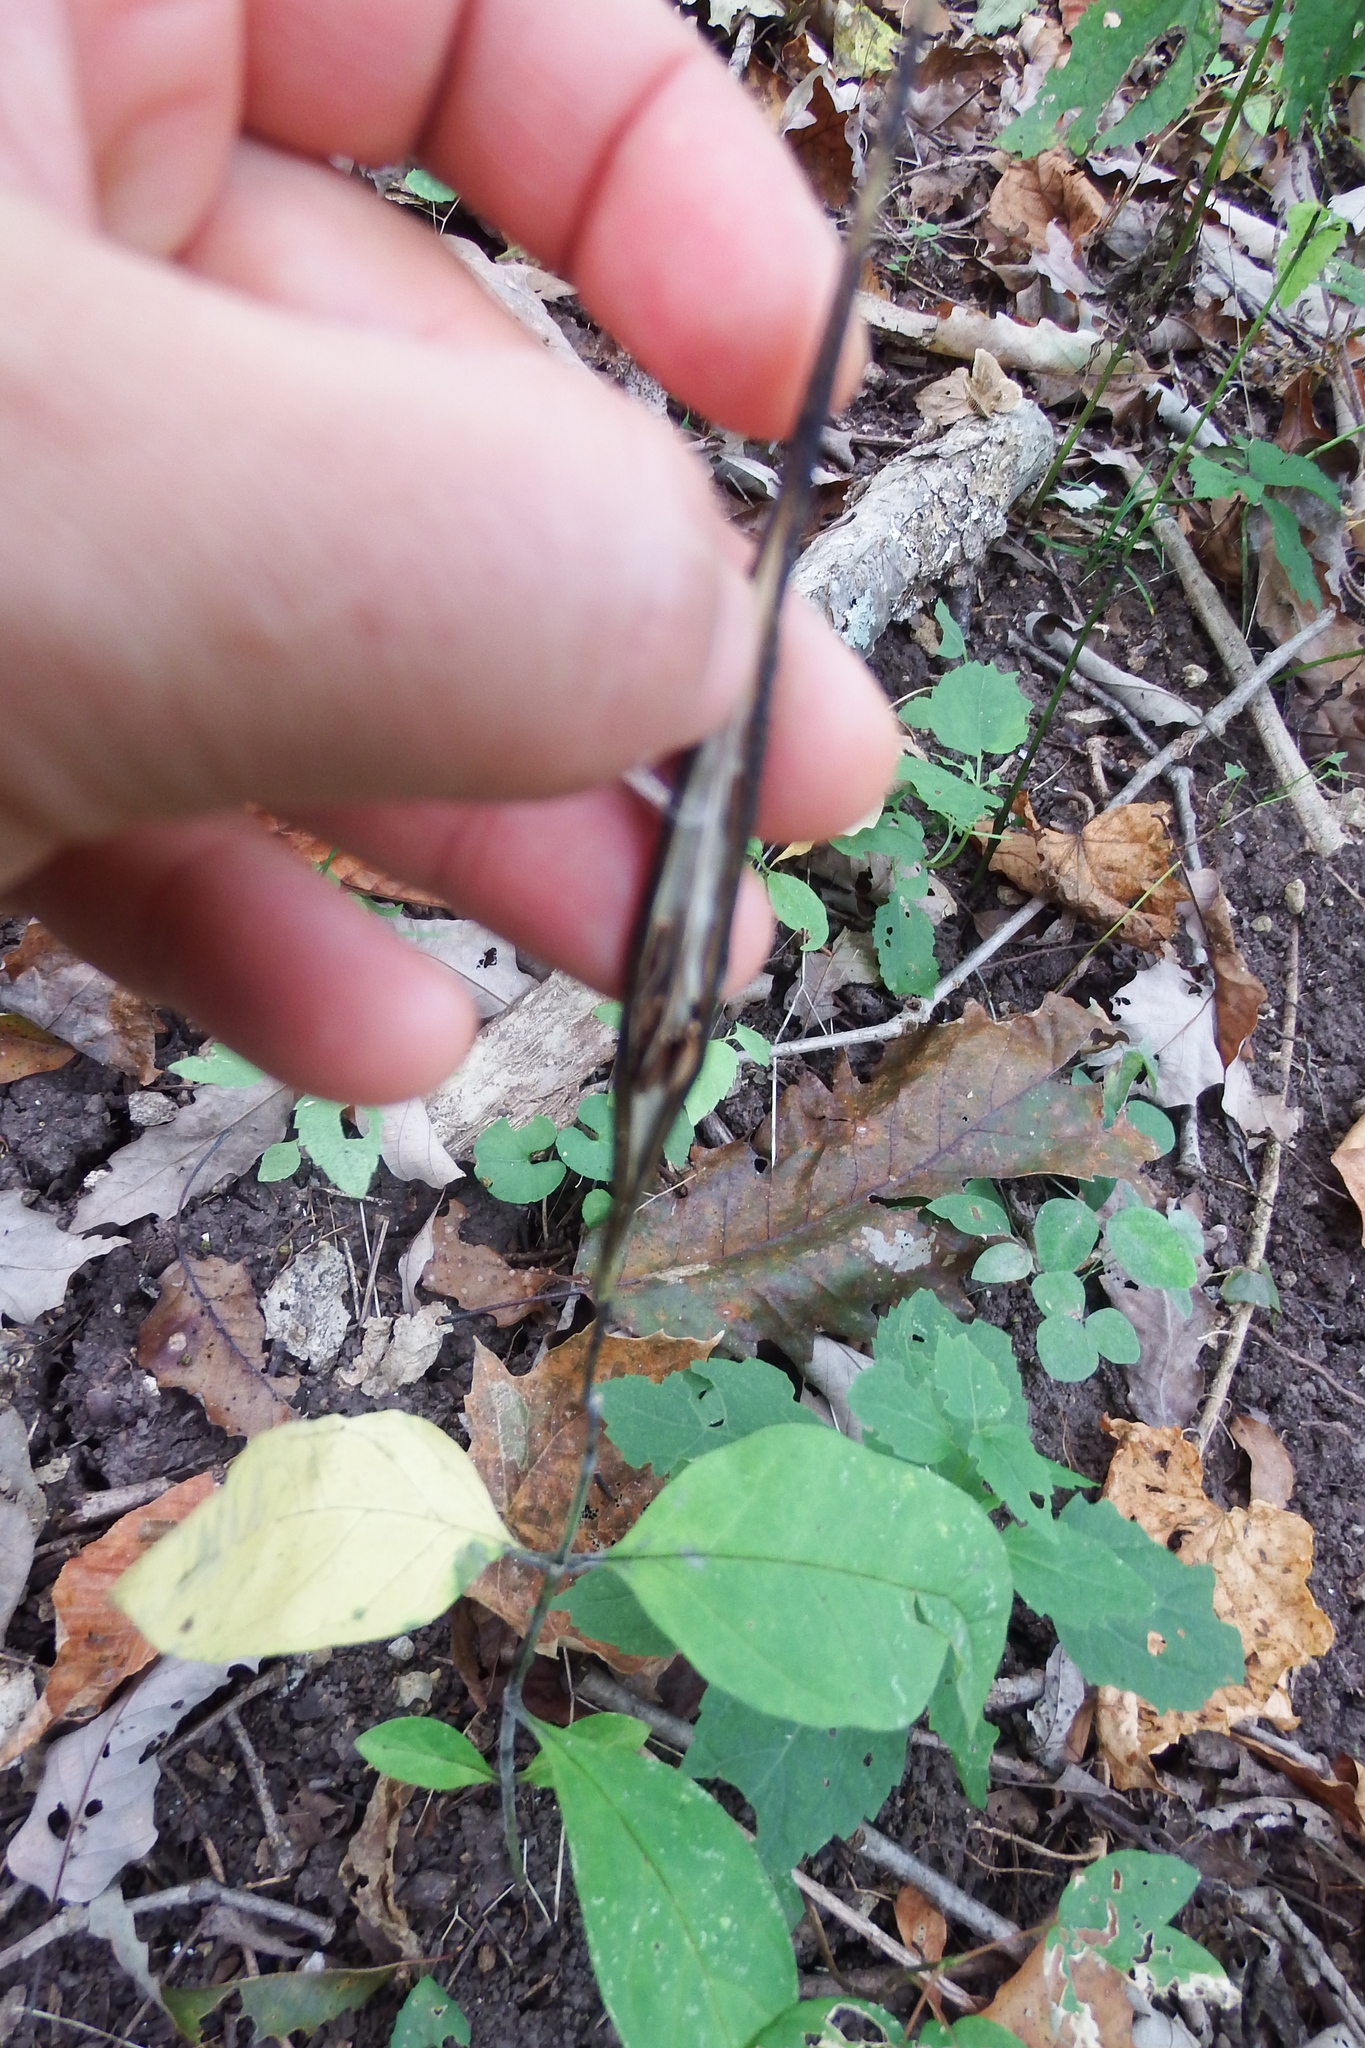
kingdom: Plantae
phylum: Tracheophyta
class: Magnoliopsida
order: Gentianales
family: Apocynaceae
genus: Asclepias
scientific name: Asclepias quadrifolia
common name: Whorled milkweed
